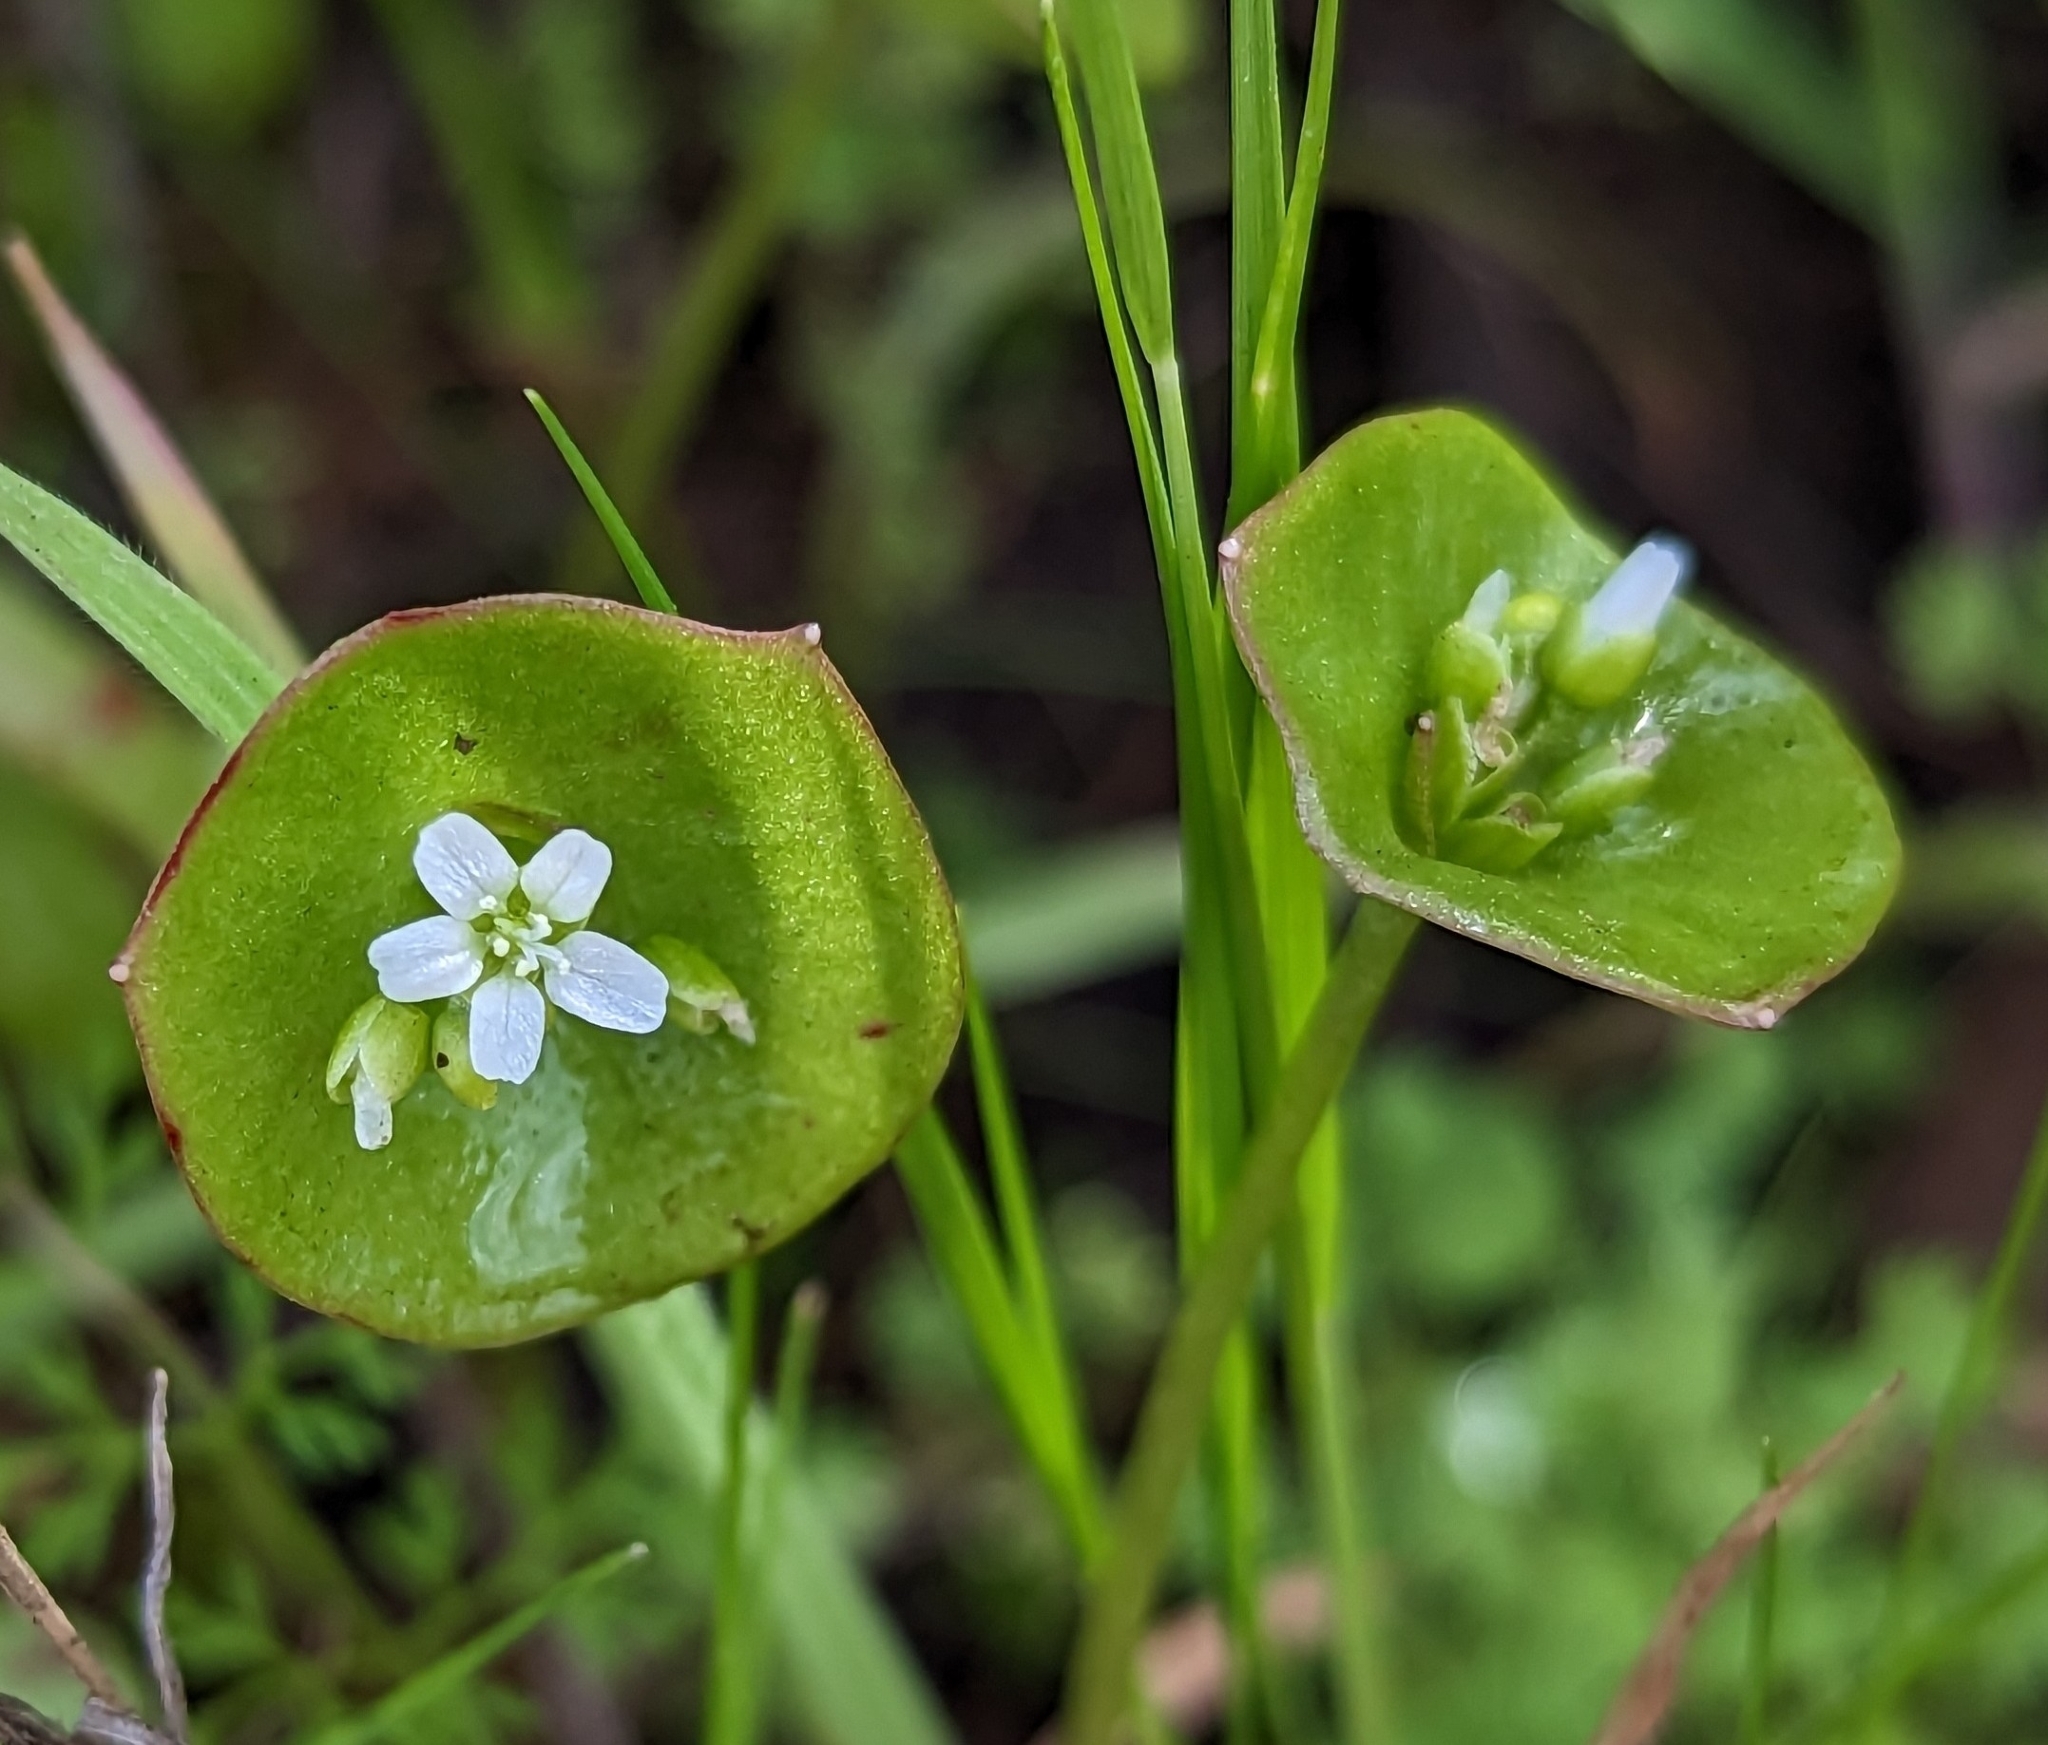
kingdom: Plantae
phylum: Tracheophyta
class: Magnoliopsida
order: Caryophyllales
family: Montiaceae
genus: Claytonia
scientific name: Claytonia perfoliata
